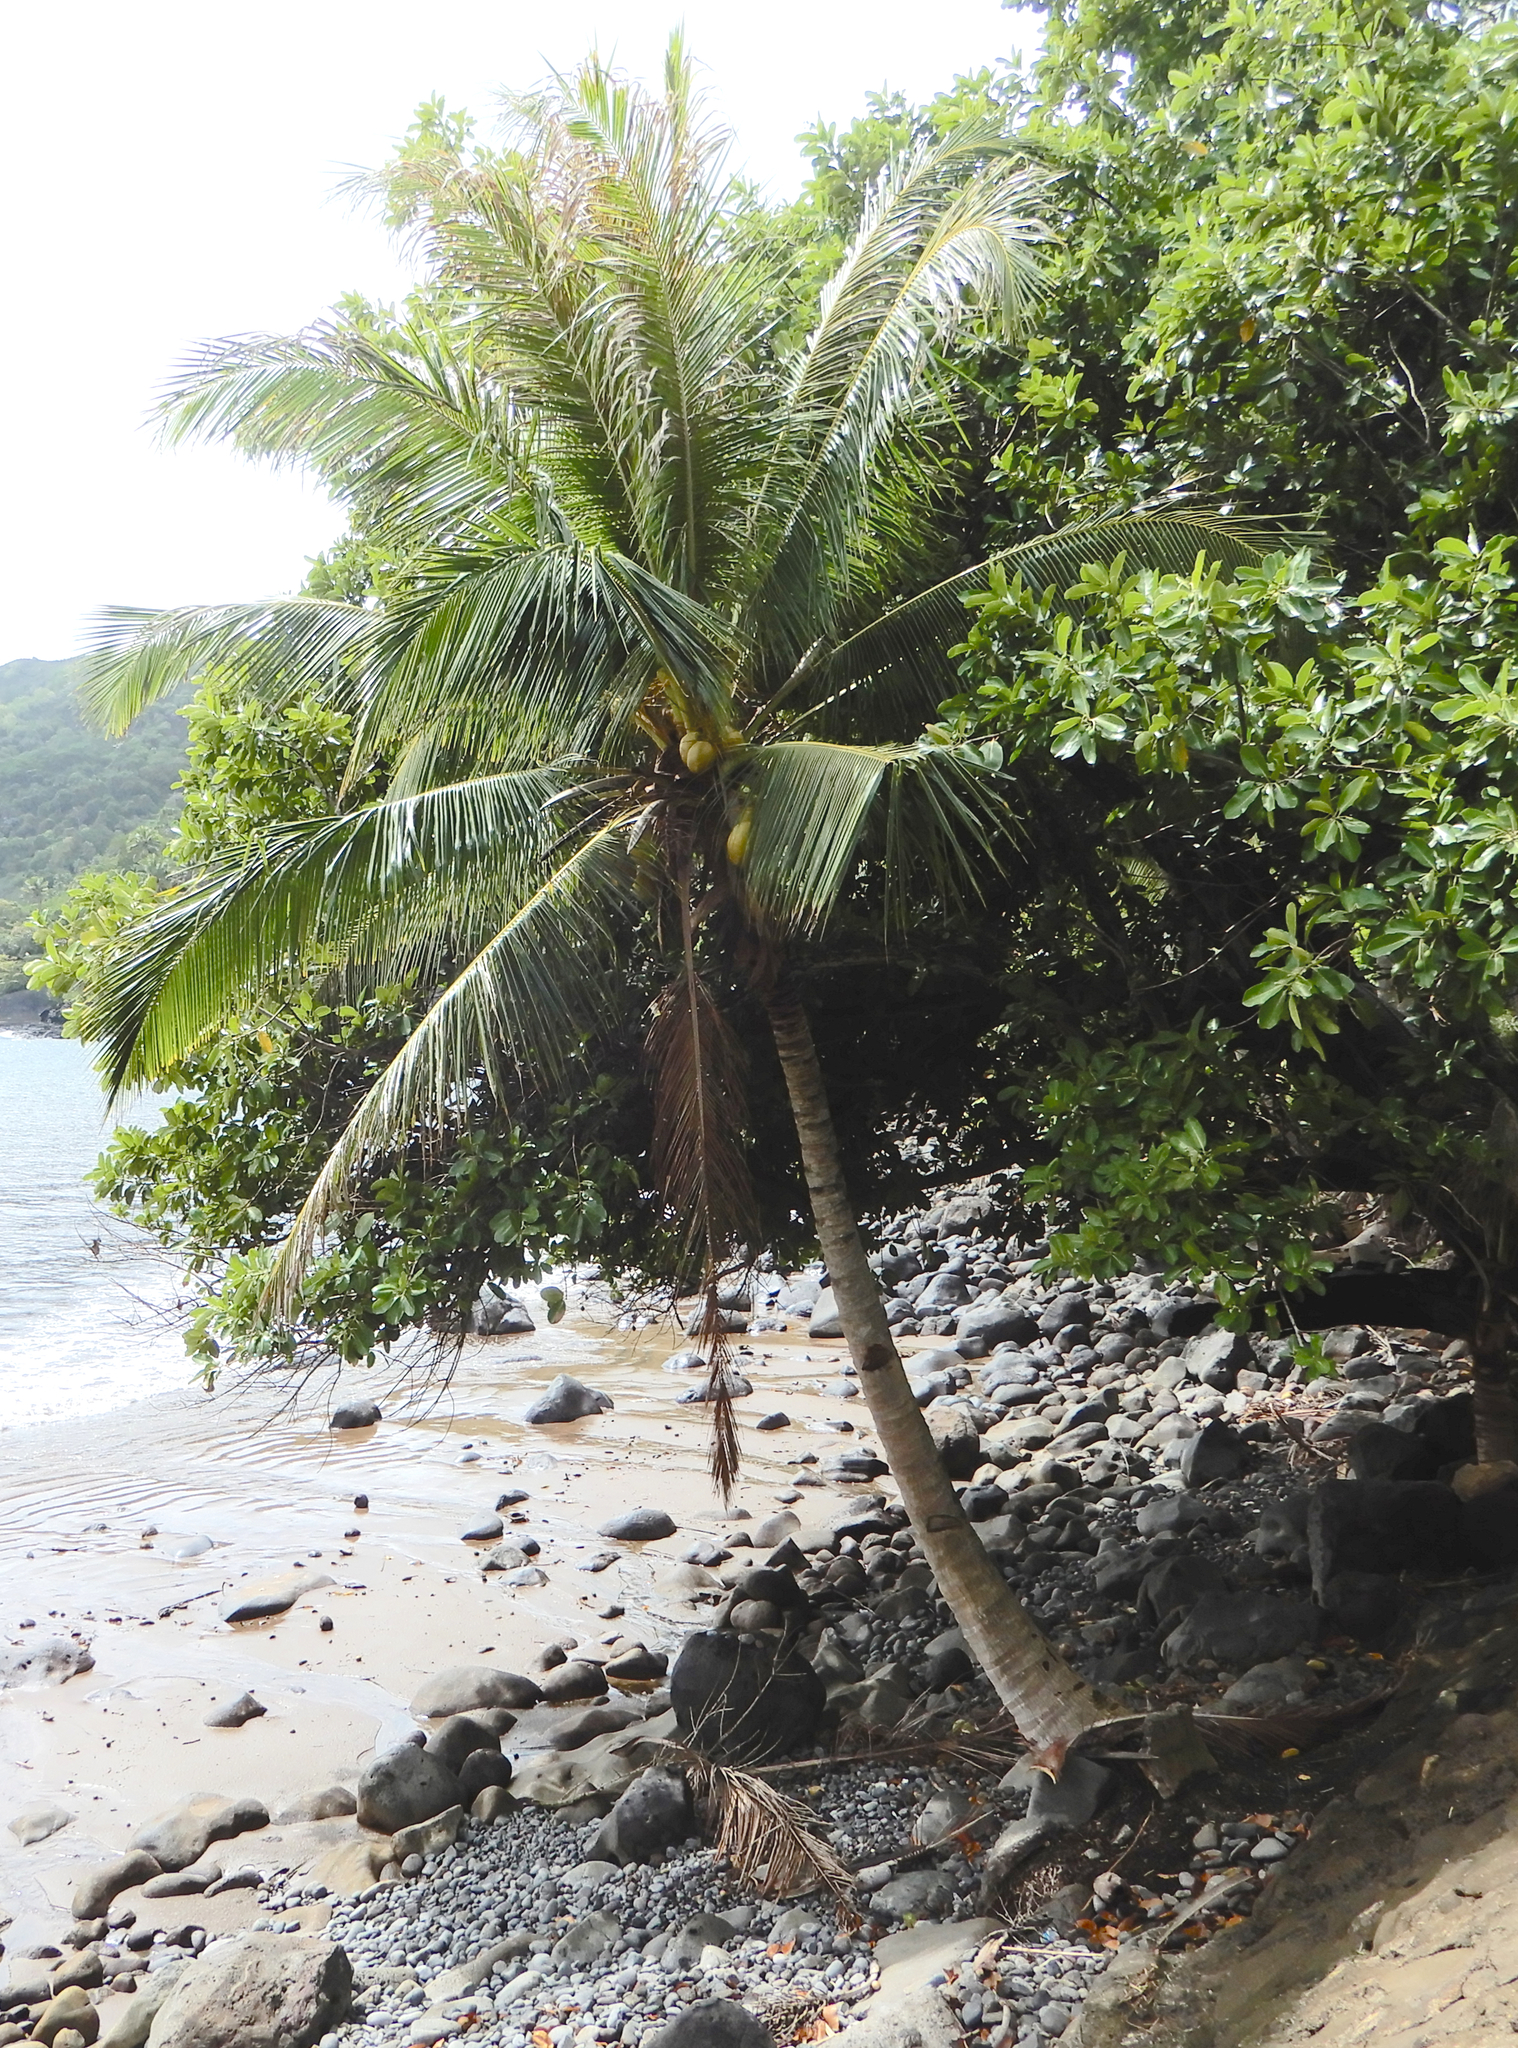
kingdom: Plantae
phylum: Tracheophyta
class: Liliopsida
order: Arecales
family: Arecaceae
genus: Cocos
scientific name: Cocos nucifera
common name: Coconut palm
